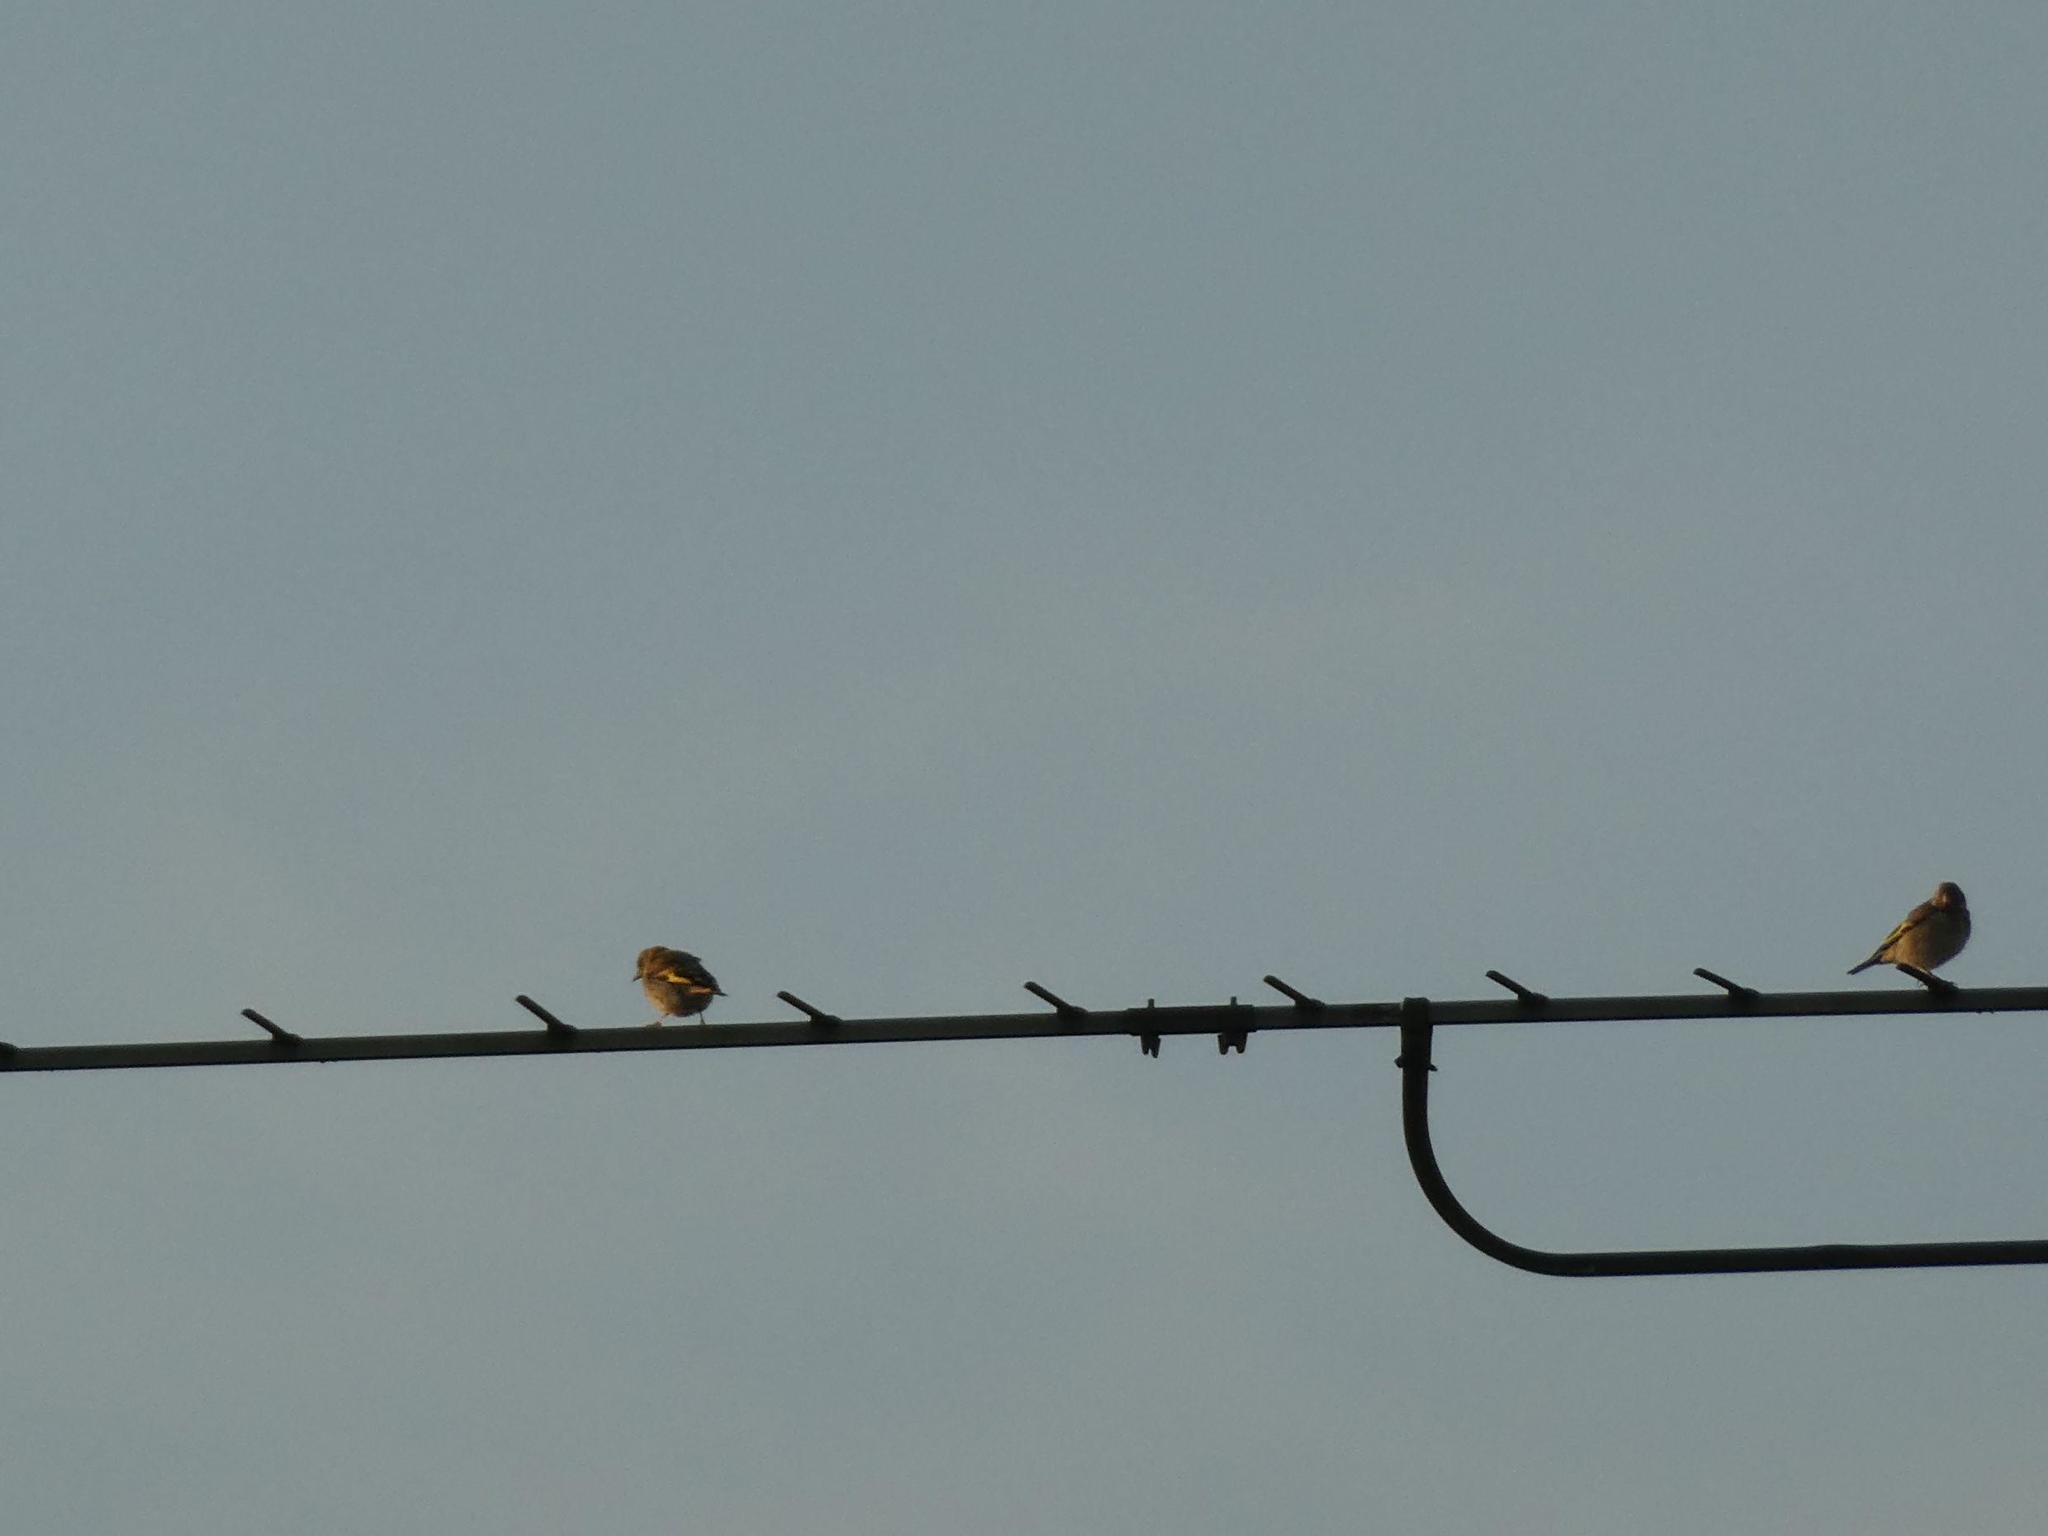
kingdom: Animalia
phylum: Chordata
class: Aves
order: Passeriformes
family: Fringillidae
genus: Carduelis
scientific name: Carduelis carduelis
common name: European goldfinch
